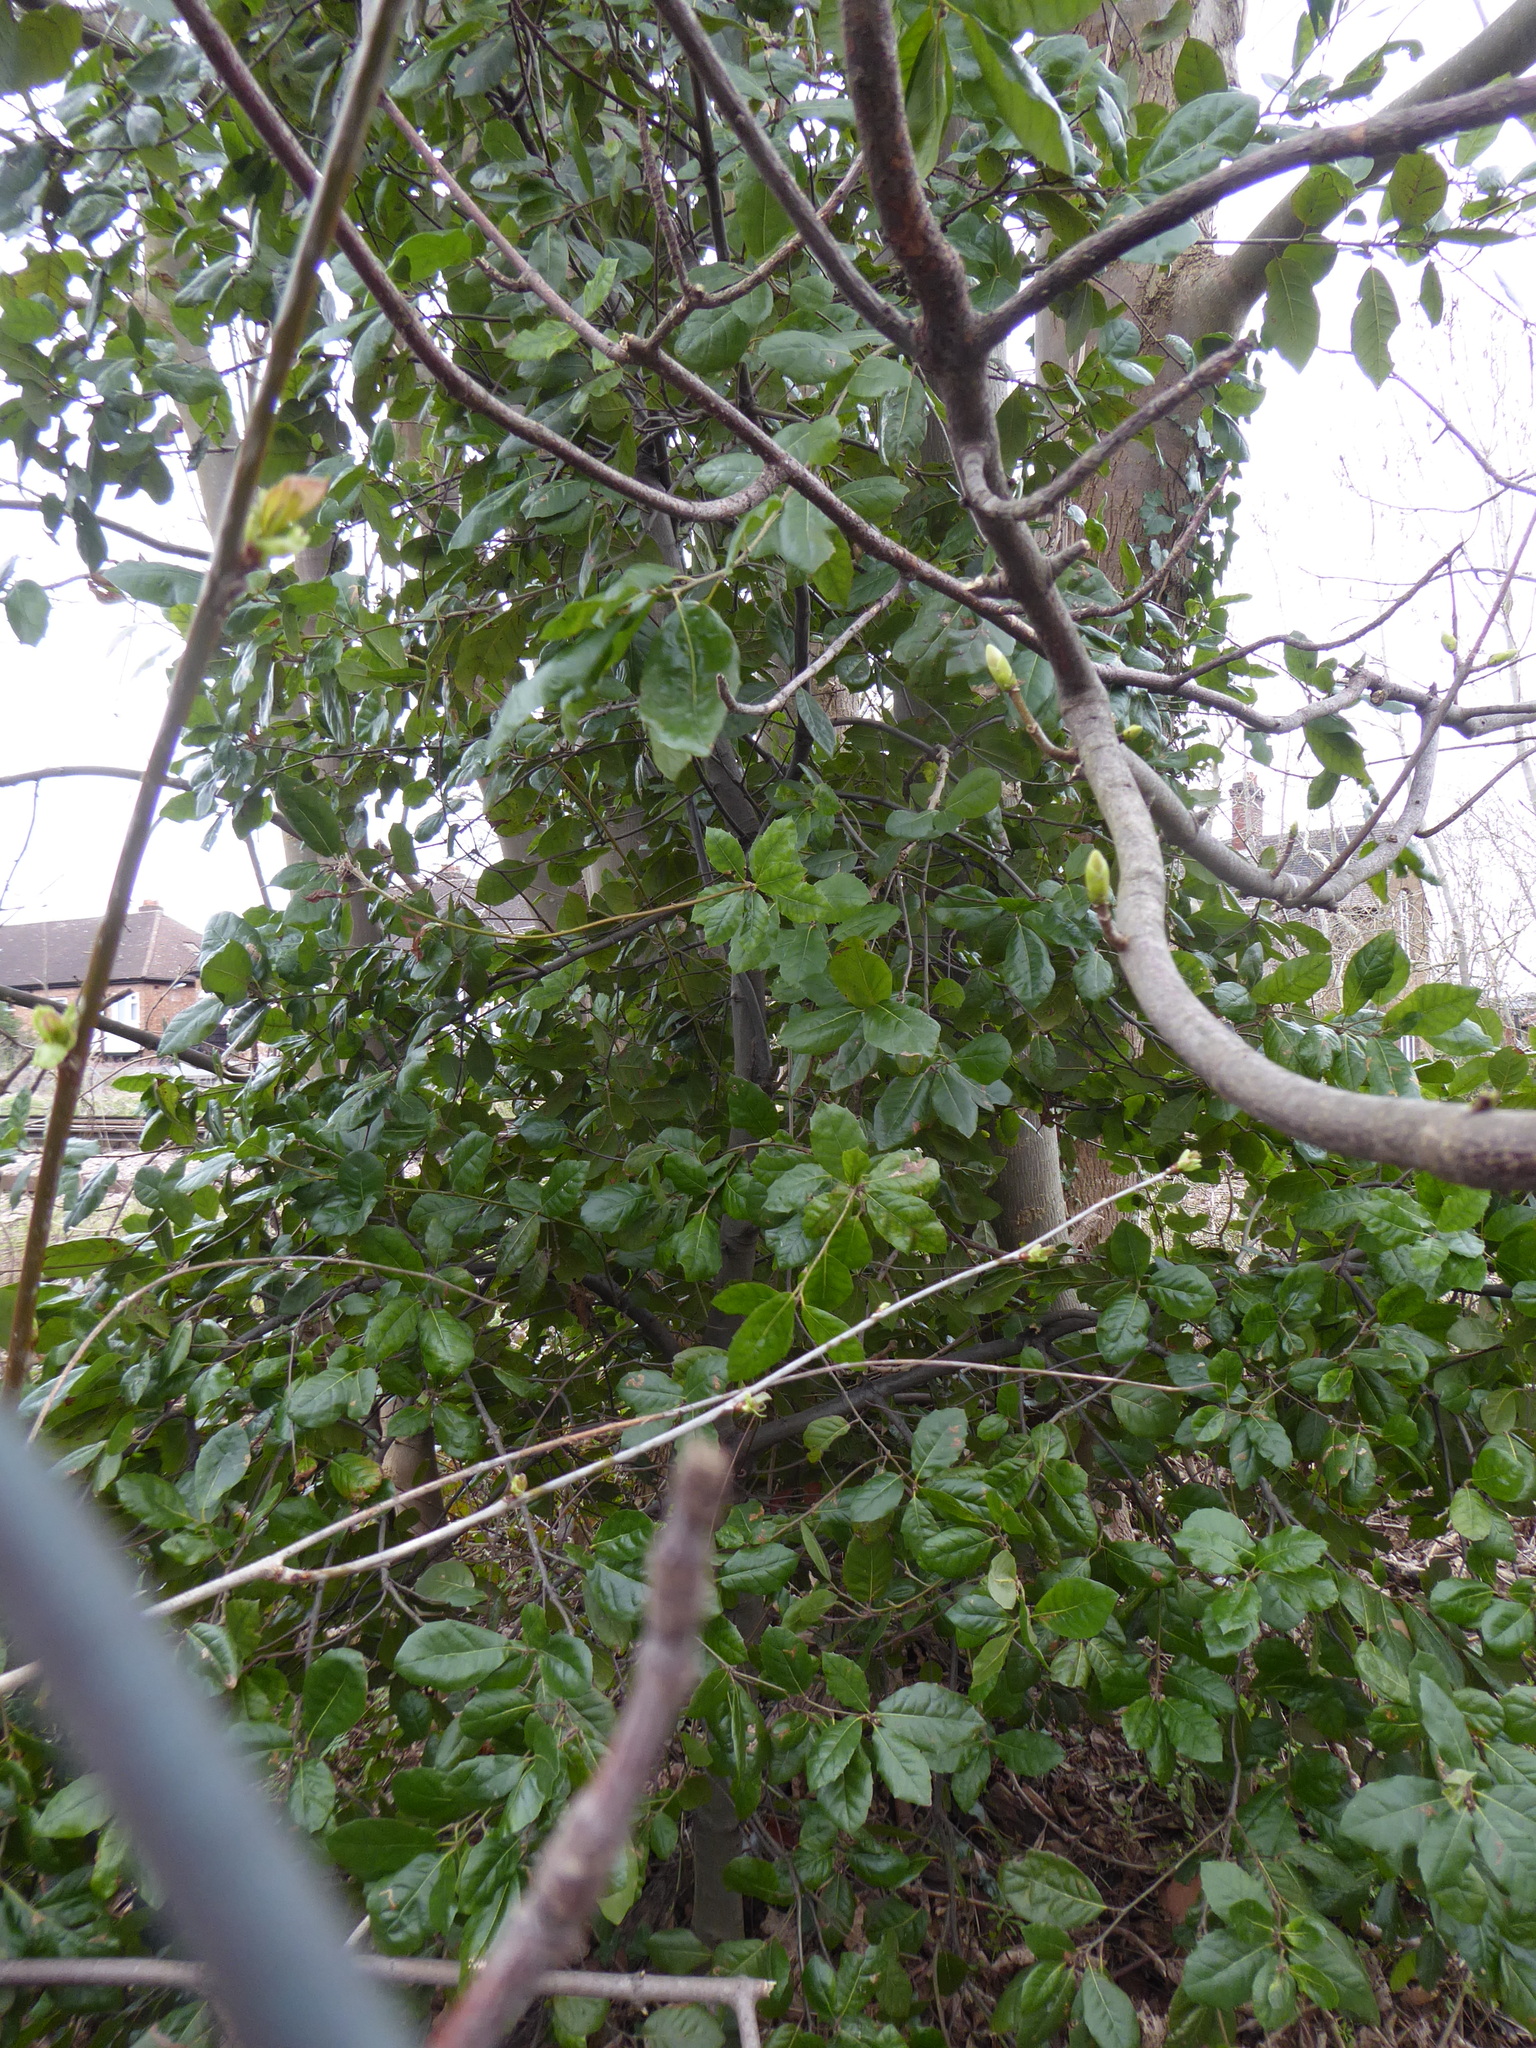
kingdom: Plantae
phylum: Tracheophyta
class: Magnoliopsida
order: Fagales
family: Fagaceae
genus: Quercus
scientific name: Quercus ilex
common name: Evergreen oak
